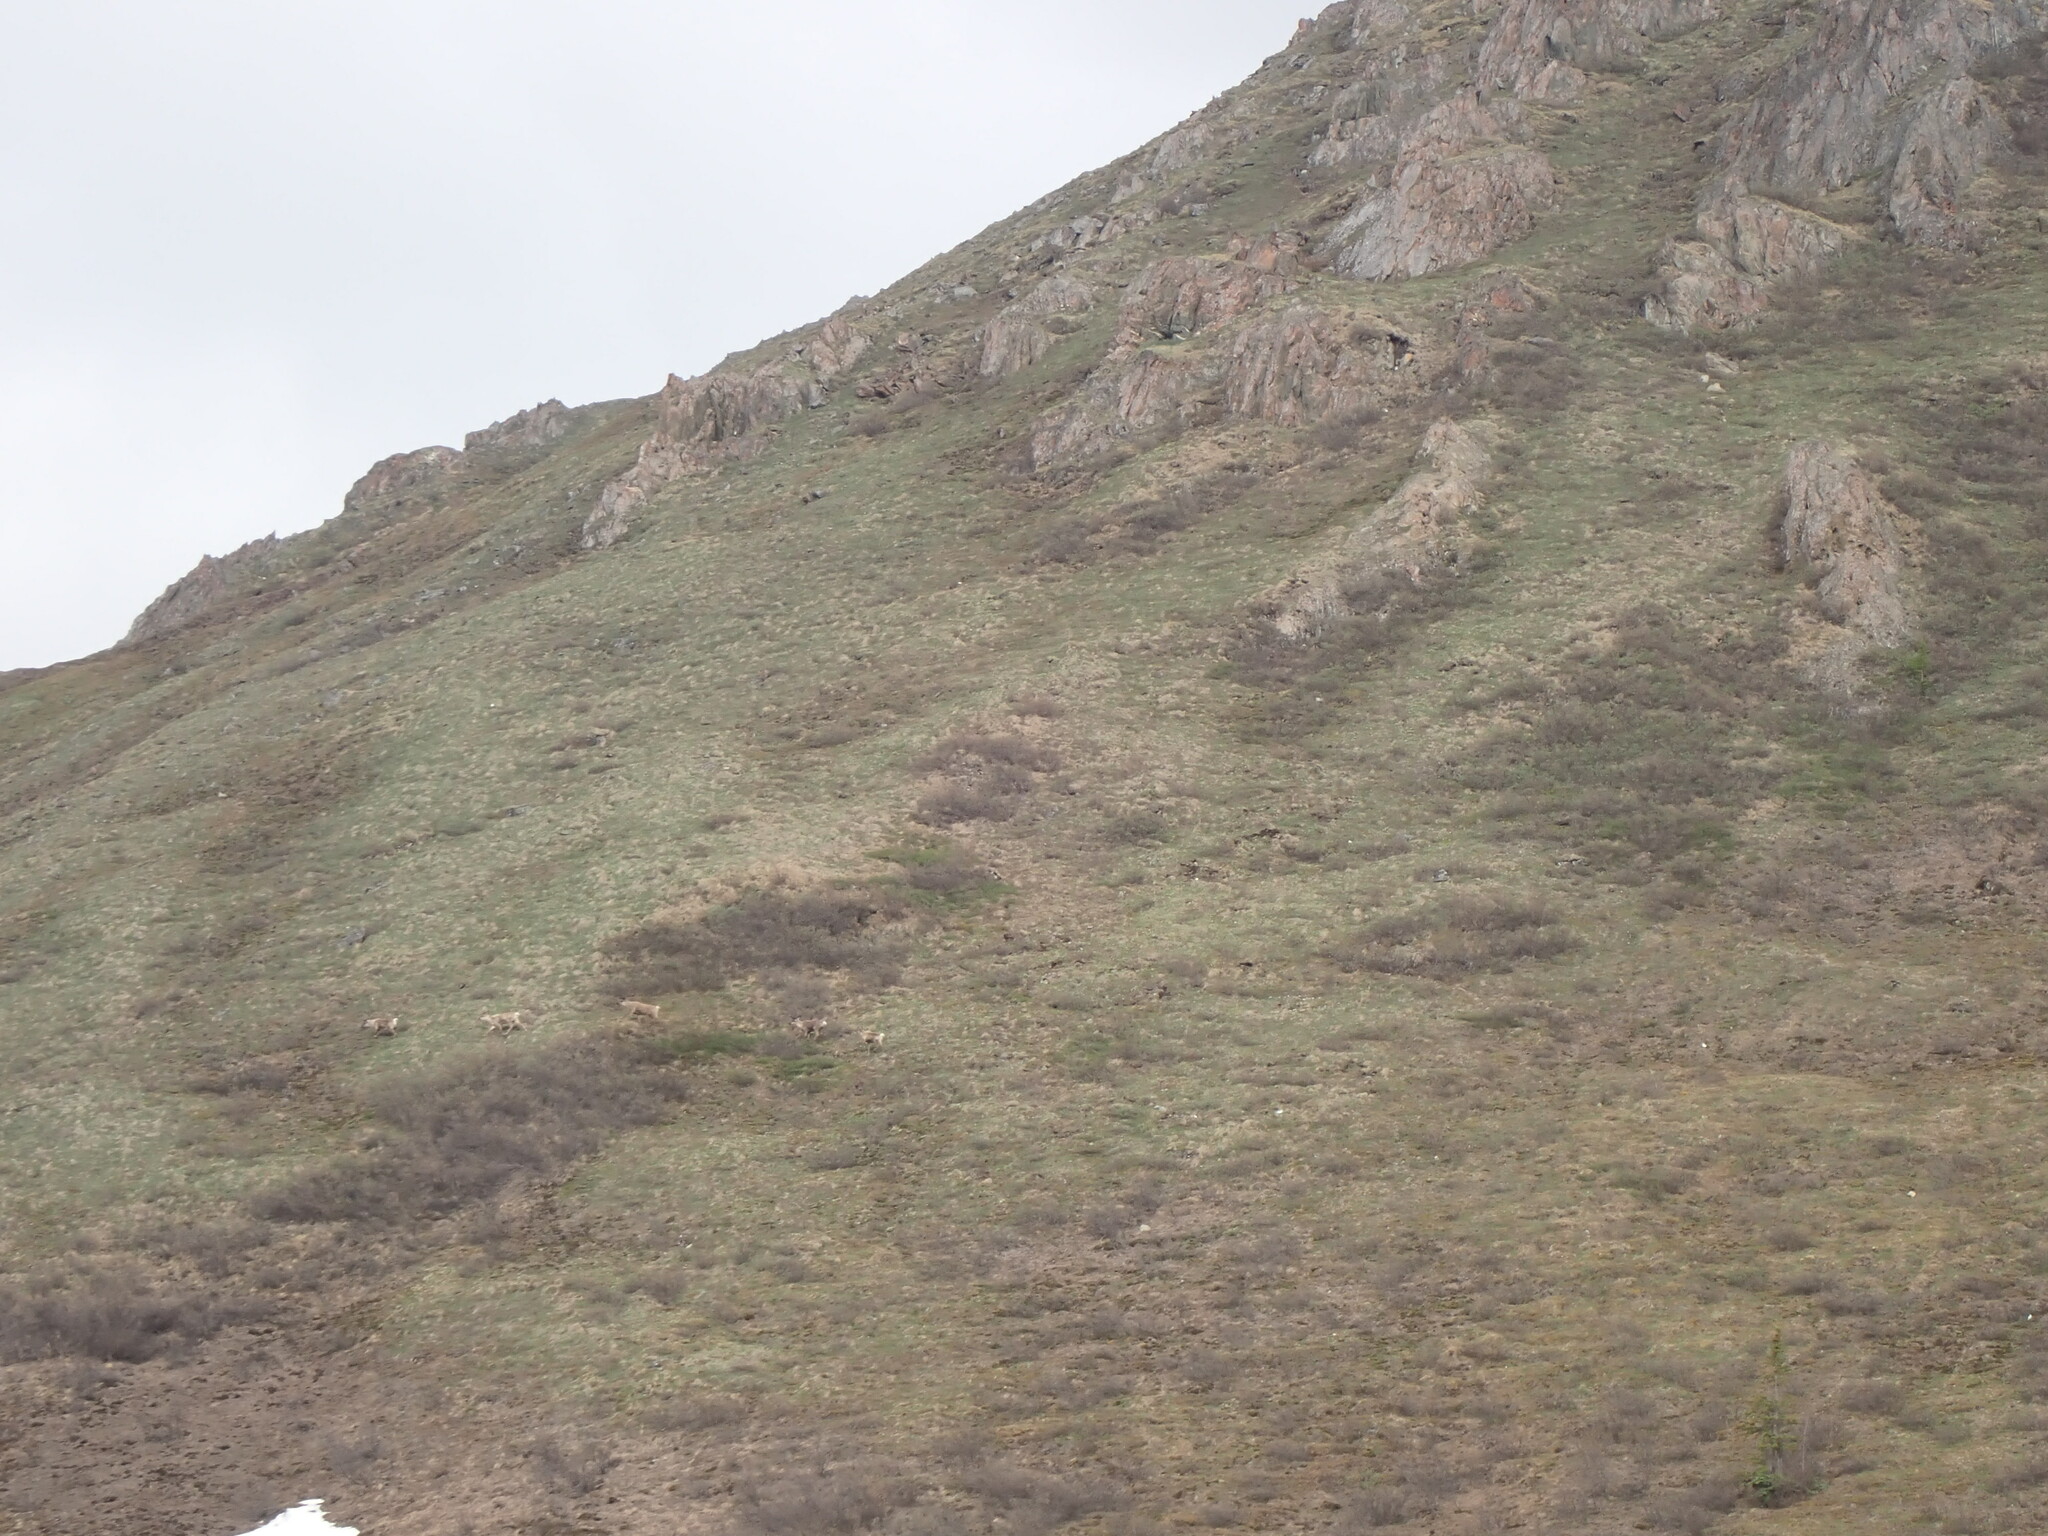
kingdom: Animalia
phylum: Chordata
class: Mammalia
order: Artiodactyla
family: Cervidae
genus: Rangifer
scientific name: Rangifer tarandus
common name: Reindeer
